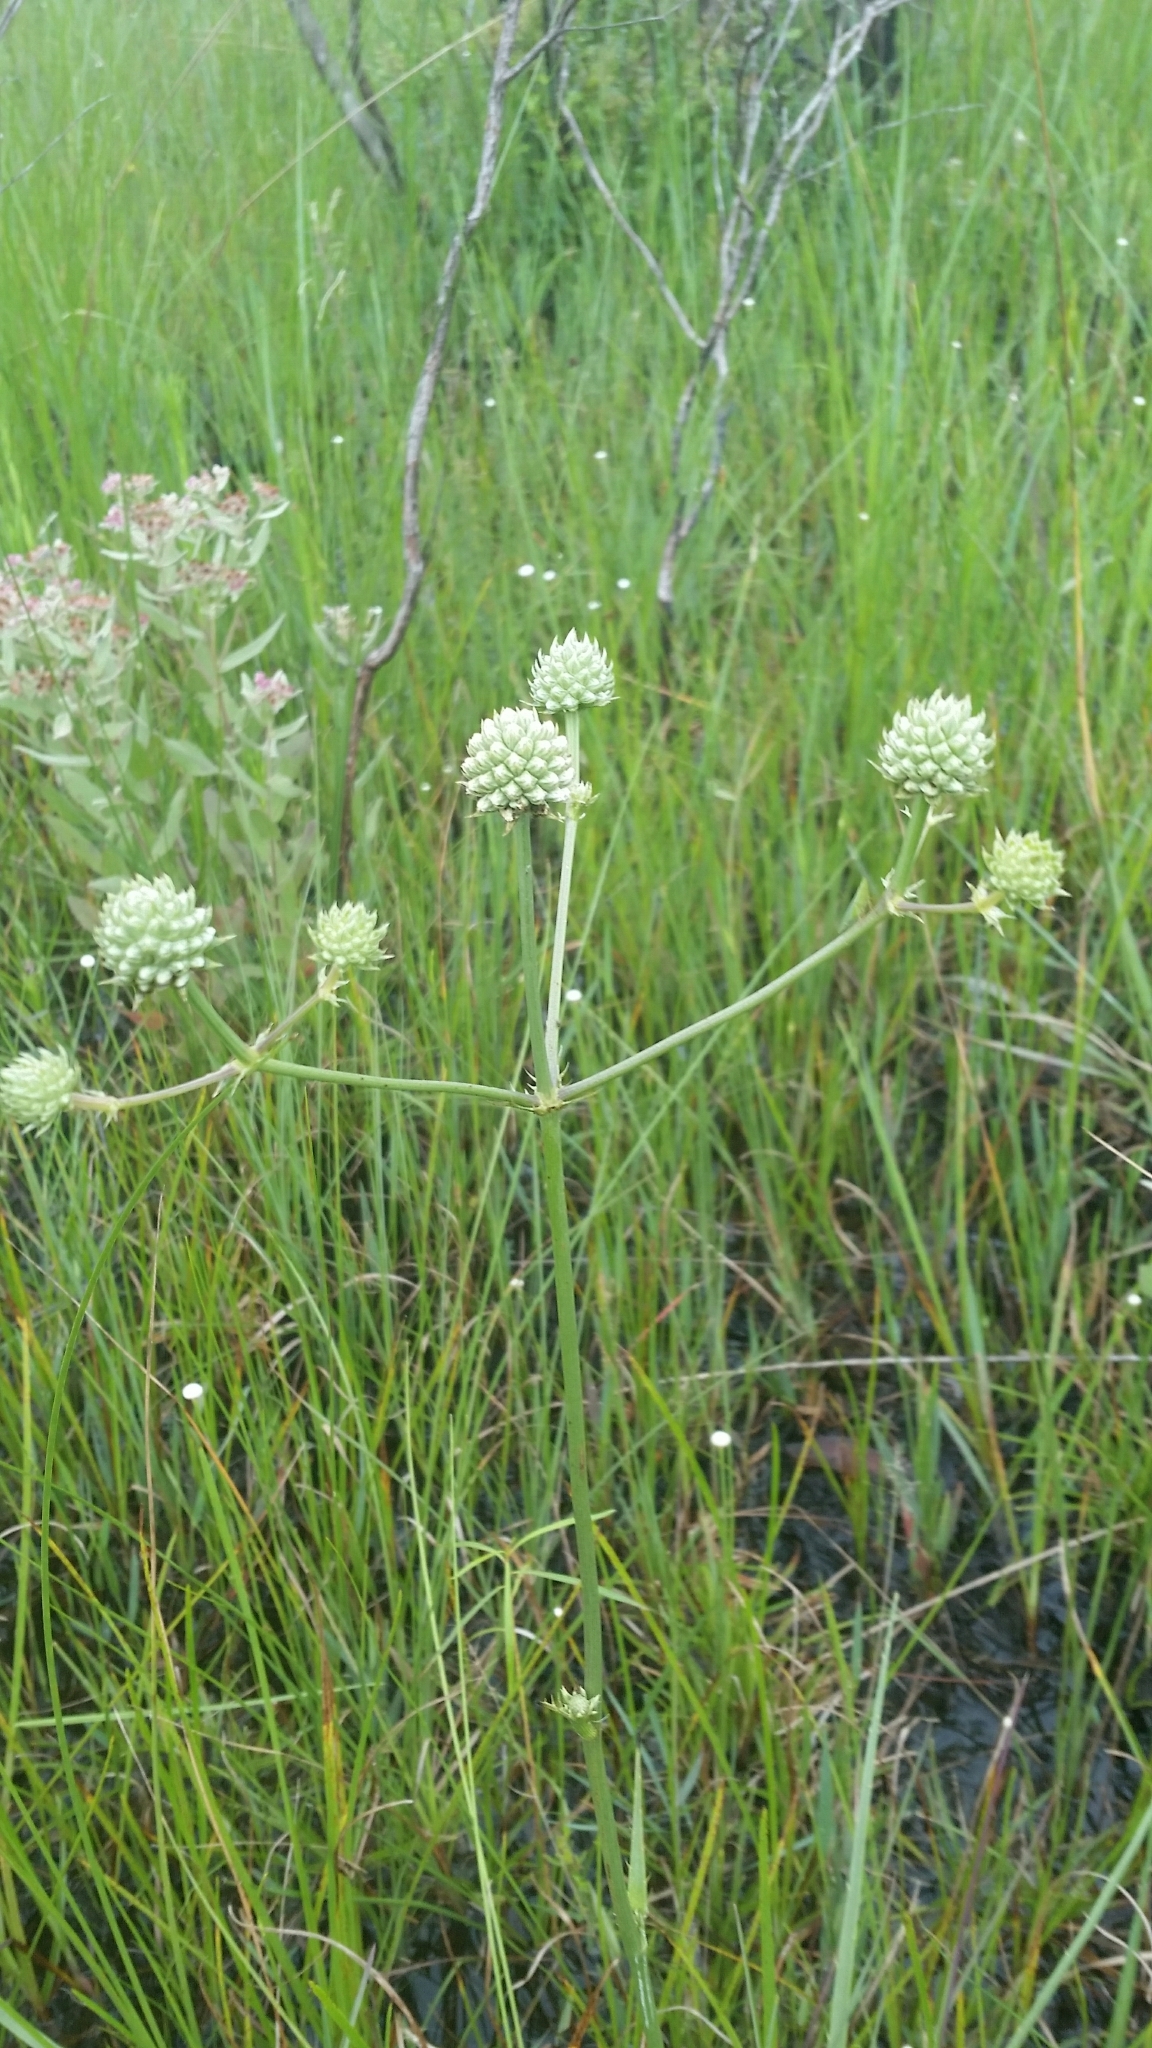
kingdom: Plantae
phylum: Tracheophyta
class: Magnoliopsida
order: Apiales
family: Apiaceae
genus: Eryngium
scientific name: Eryngium yuccifolium
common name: Button eryngo
